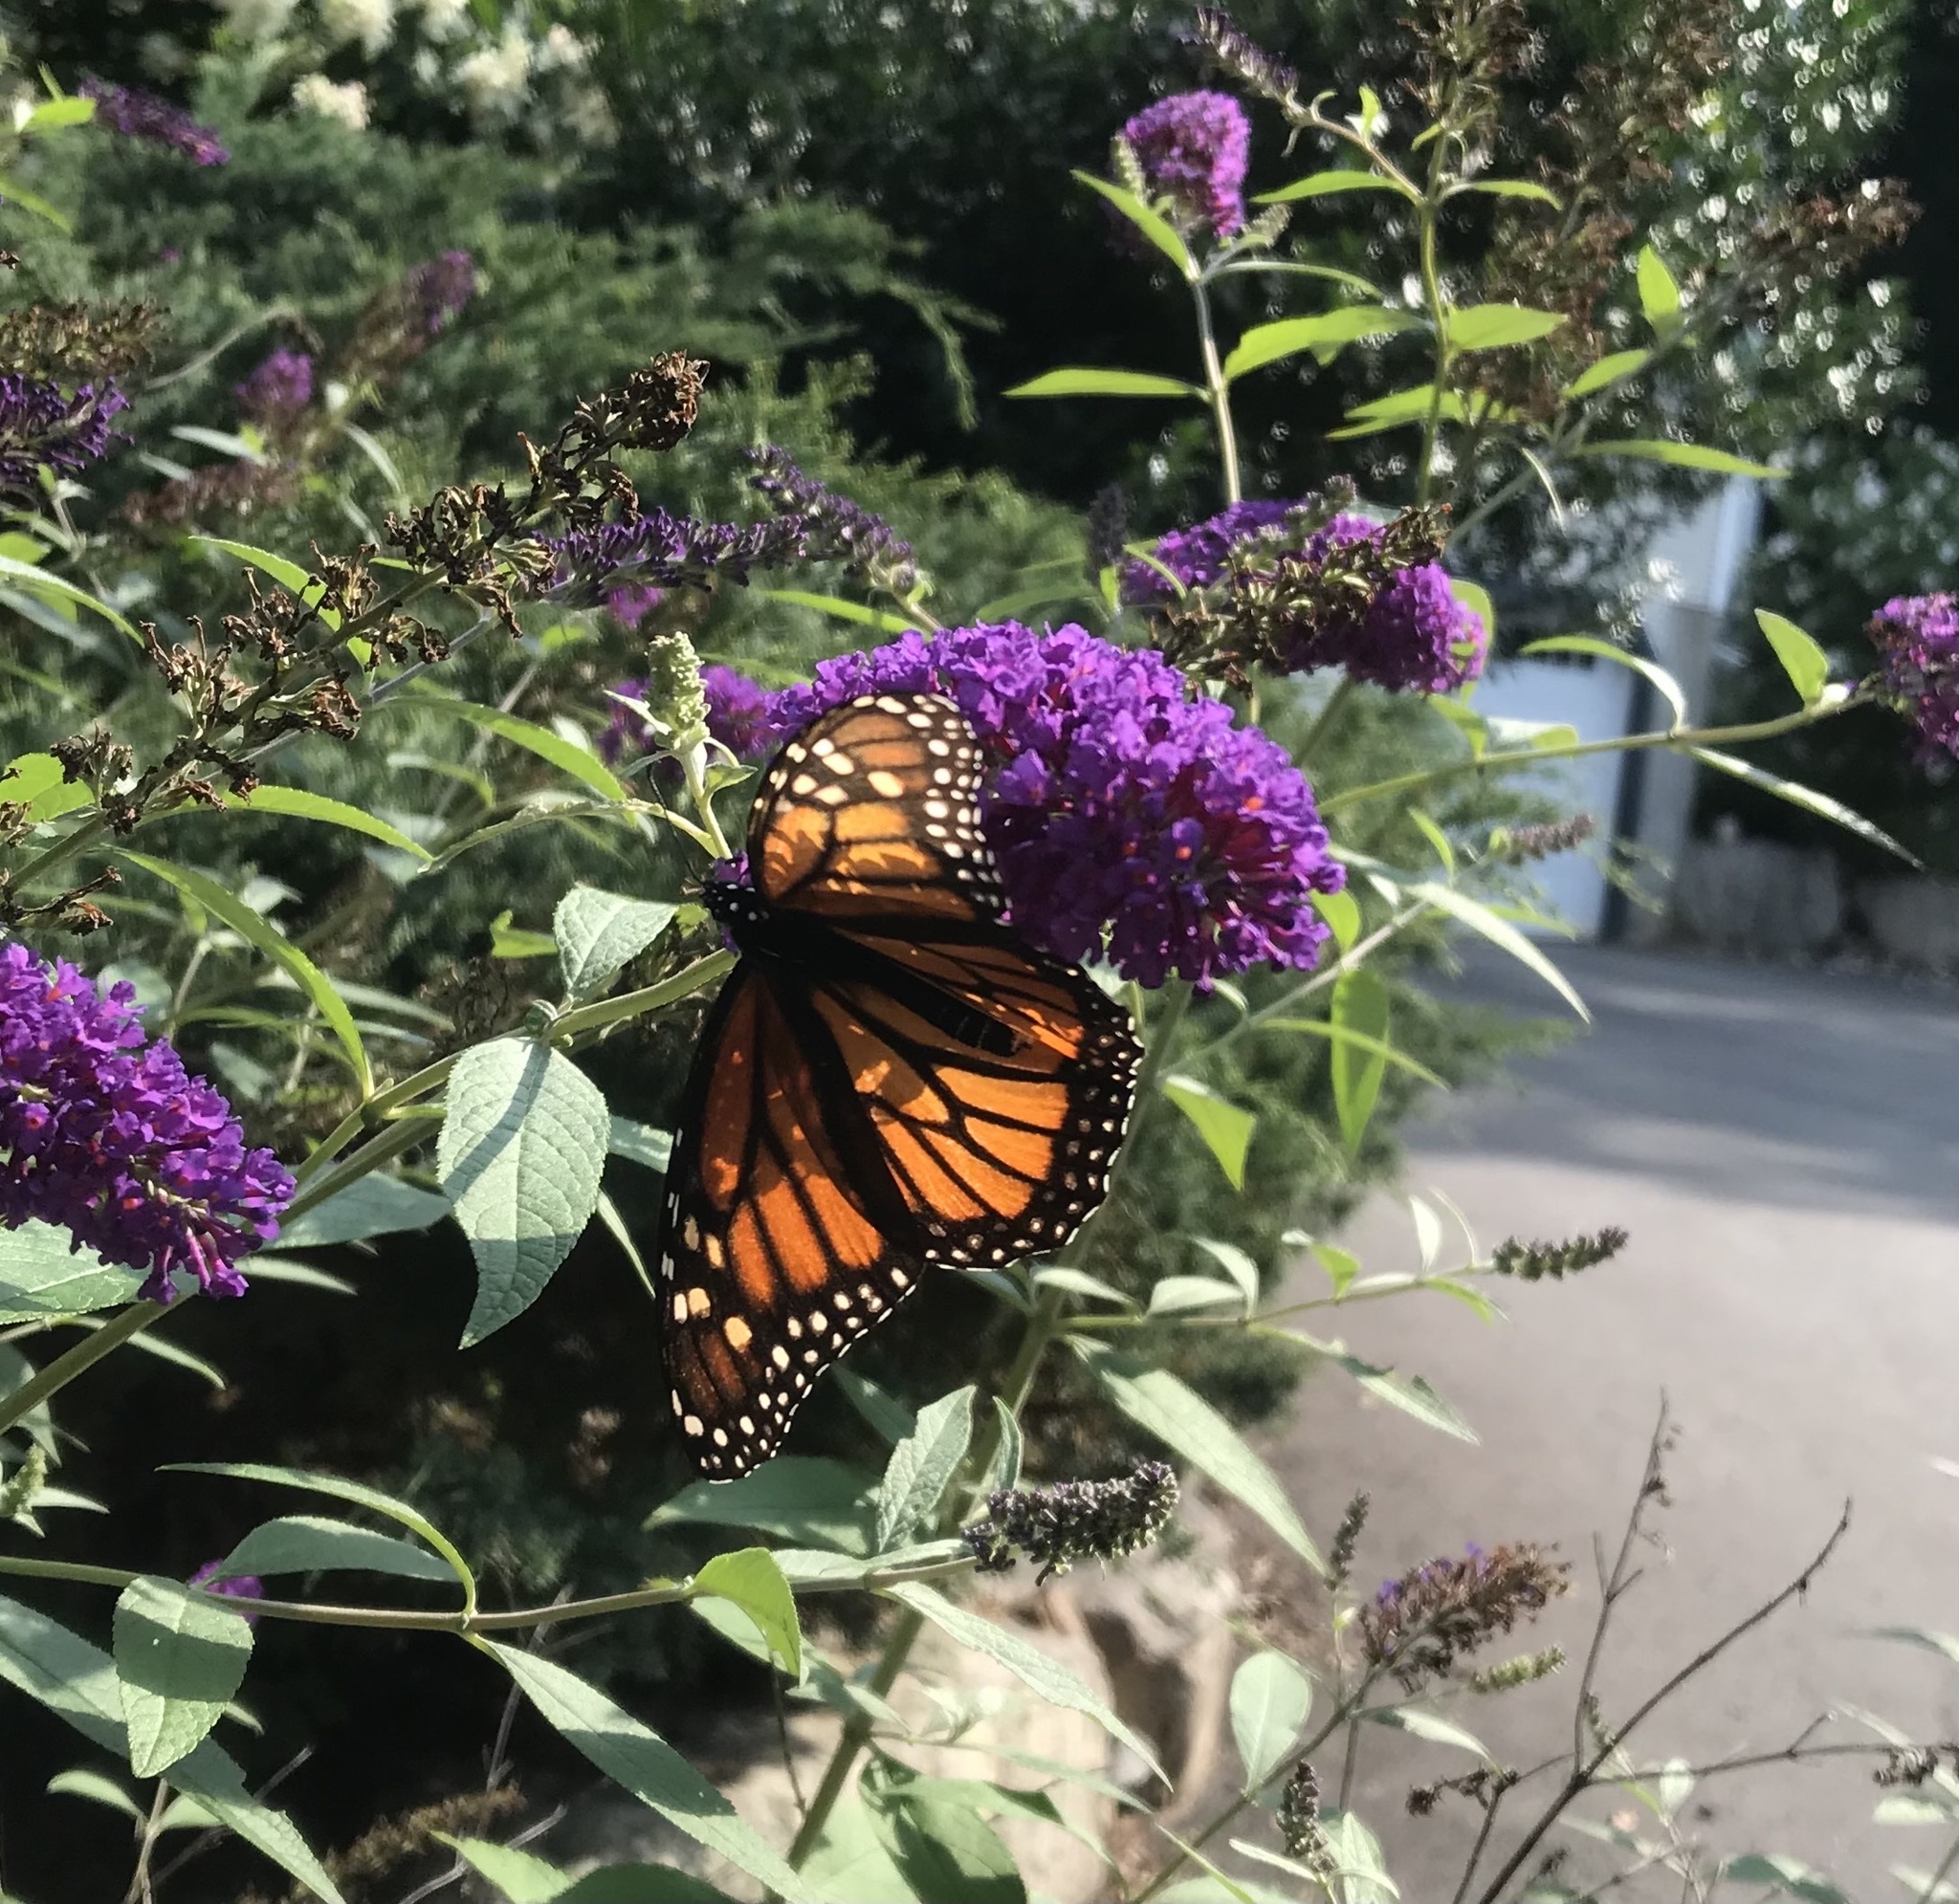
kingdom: Animalia
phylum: Arthropoda
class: Insecta
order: Lepidoptera
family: Nymphalidae
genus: Danaus
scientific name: Danaus plexippus
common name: Monarch
